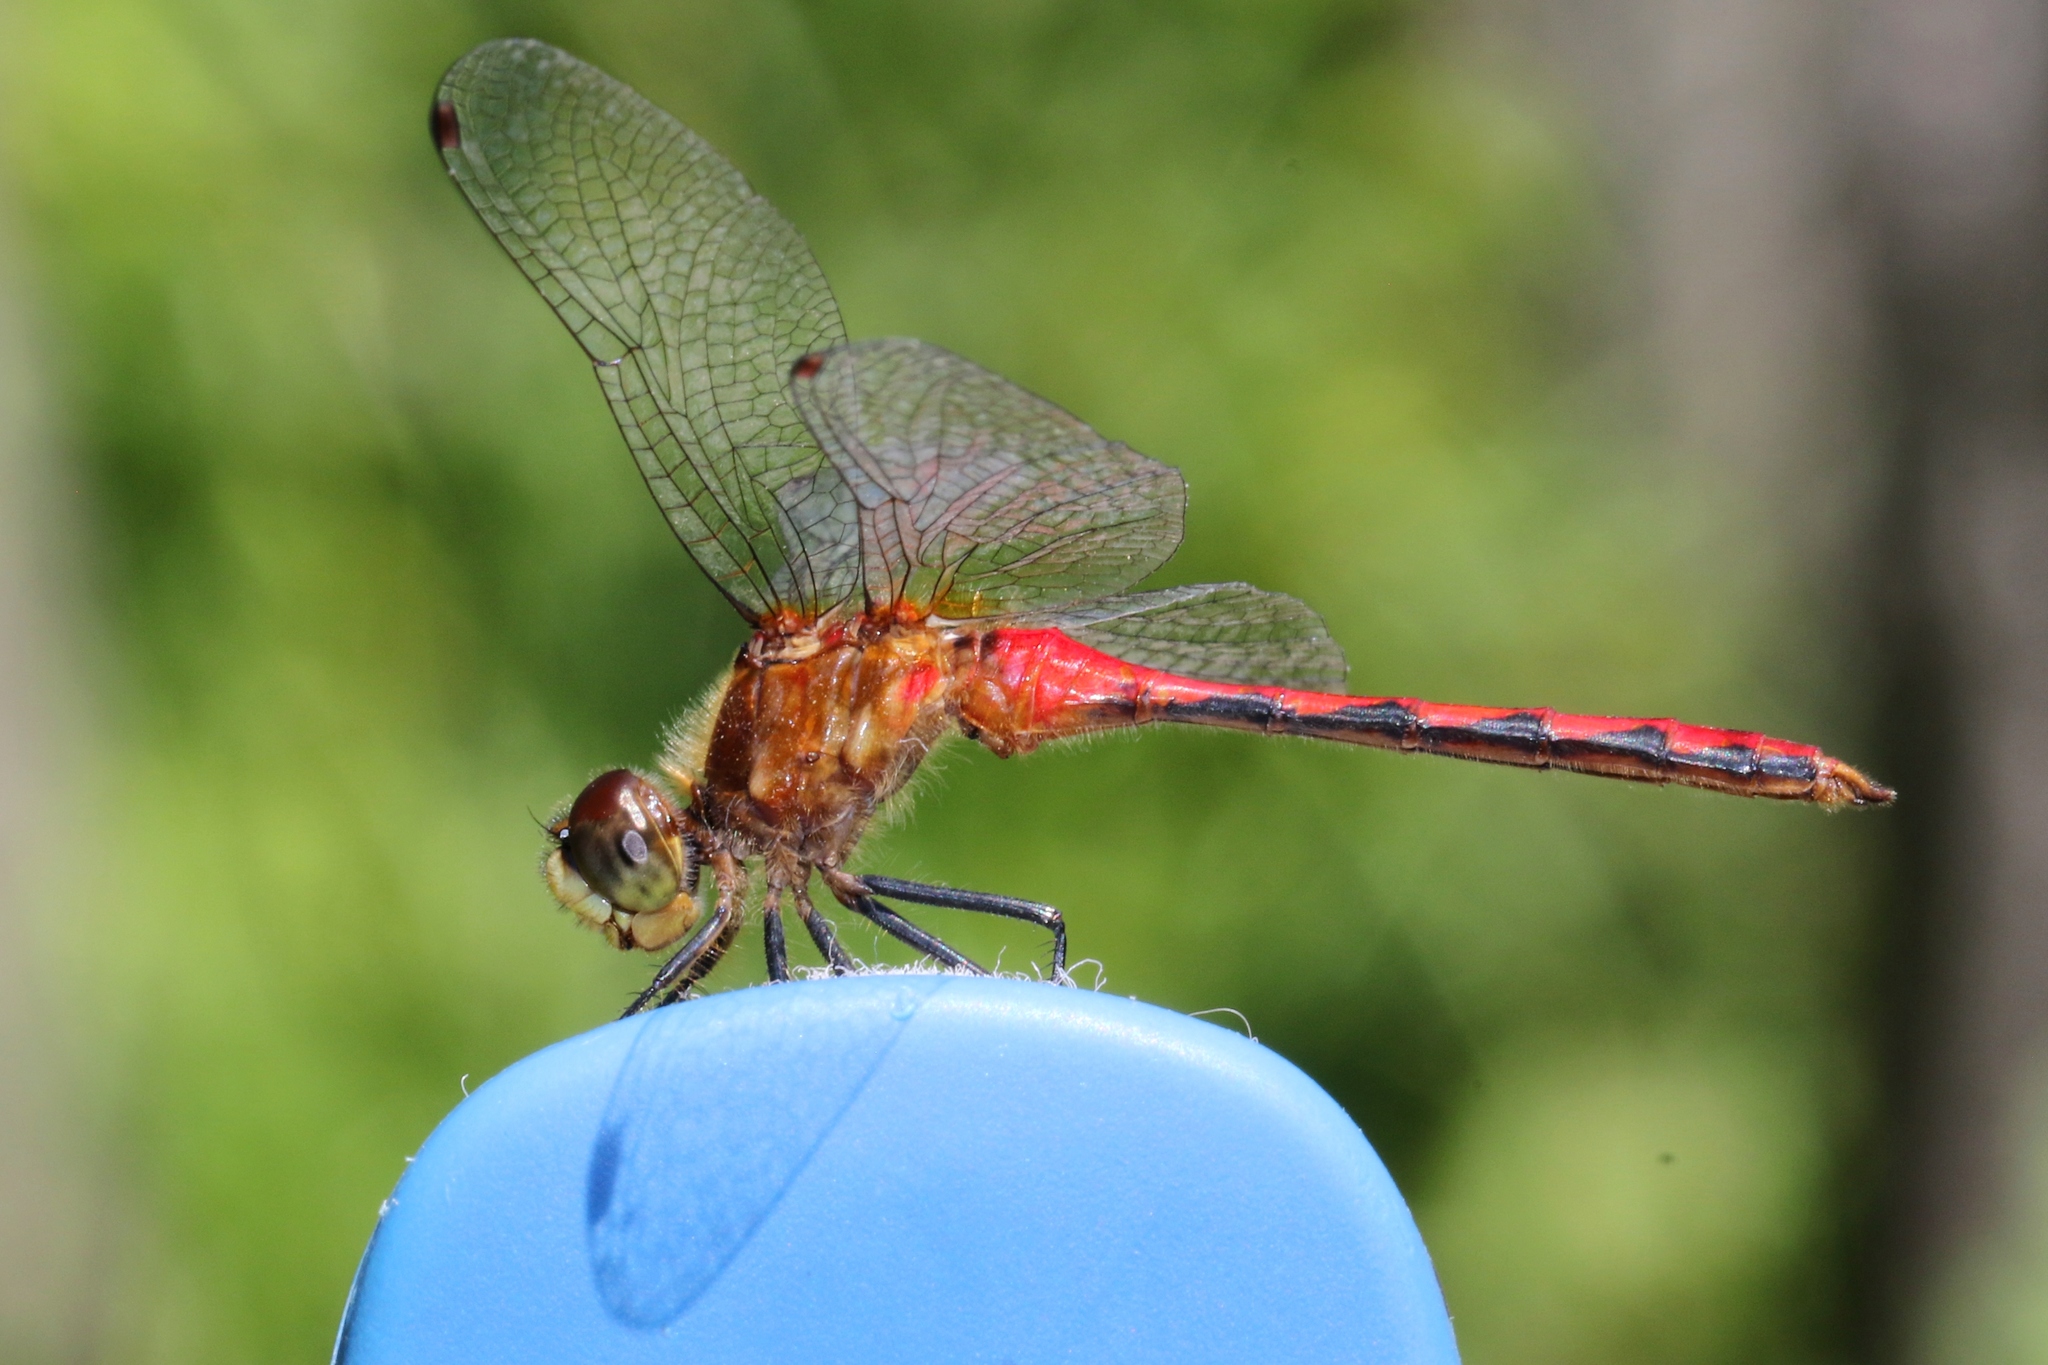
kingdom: Animalia
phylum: Arthropoda
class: Insecta
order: Odonata
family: Libellulidae
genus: Sympetrum
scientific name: Sympetrum obtrusum
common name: White-faced meadowhawk
